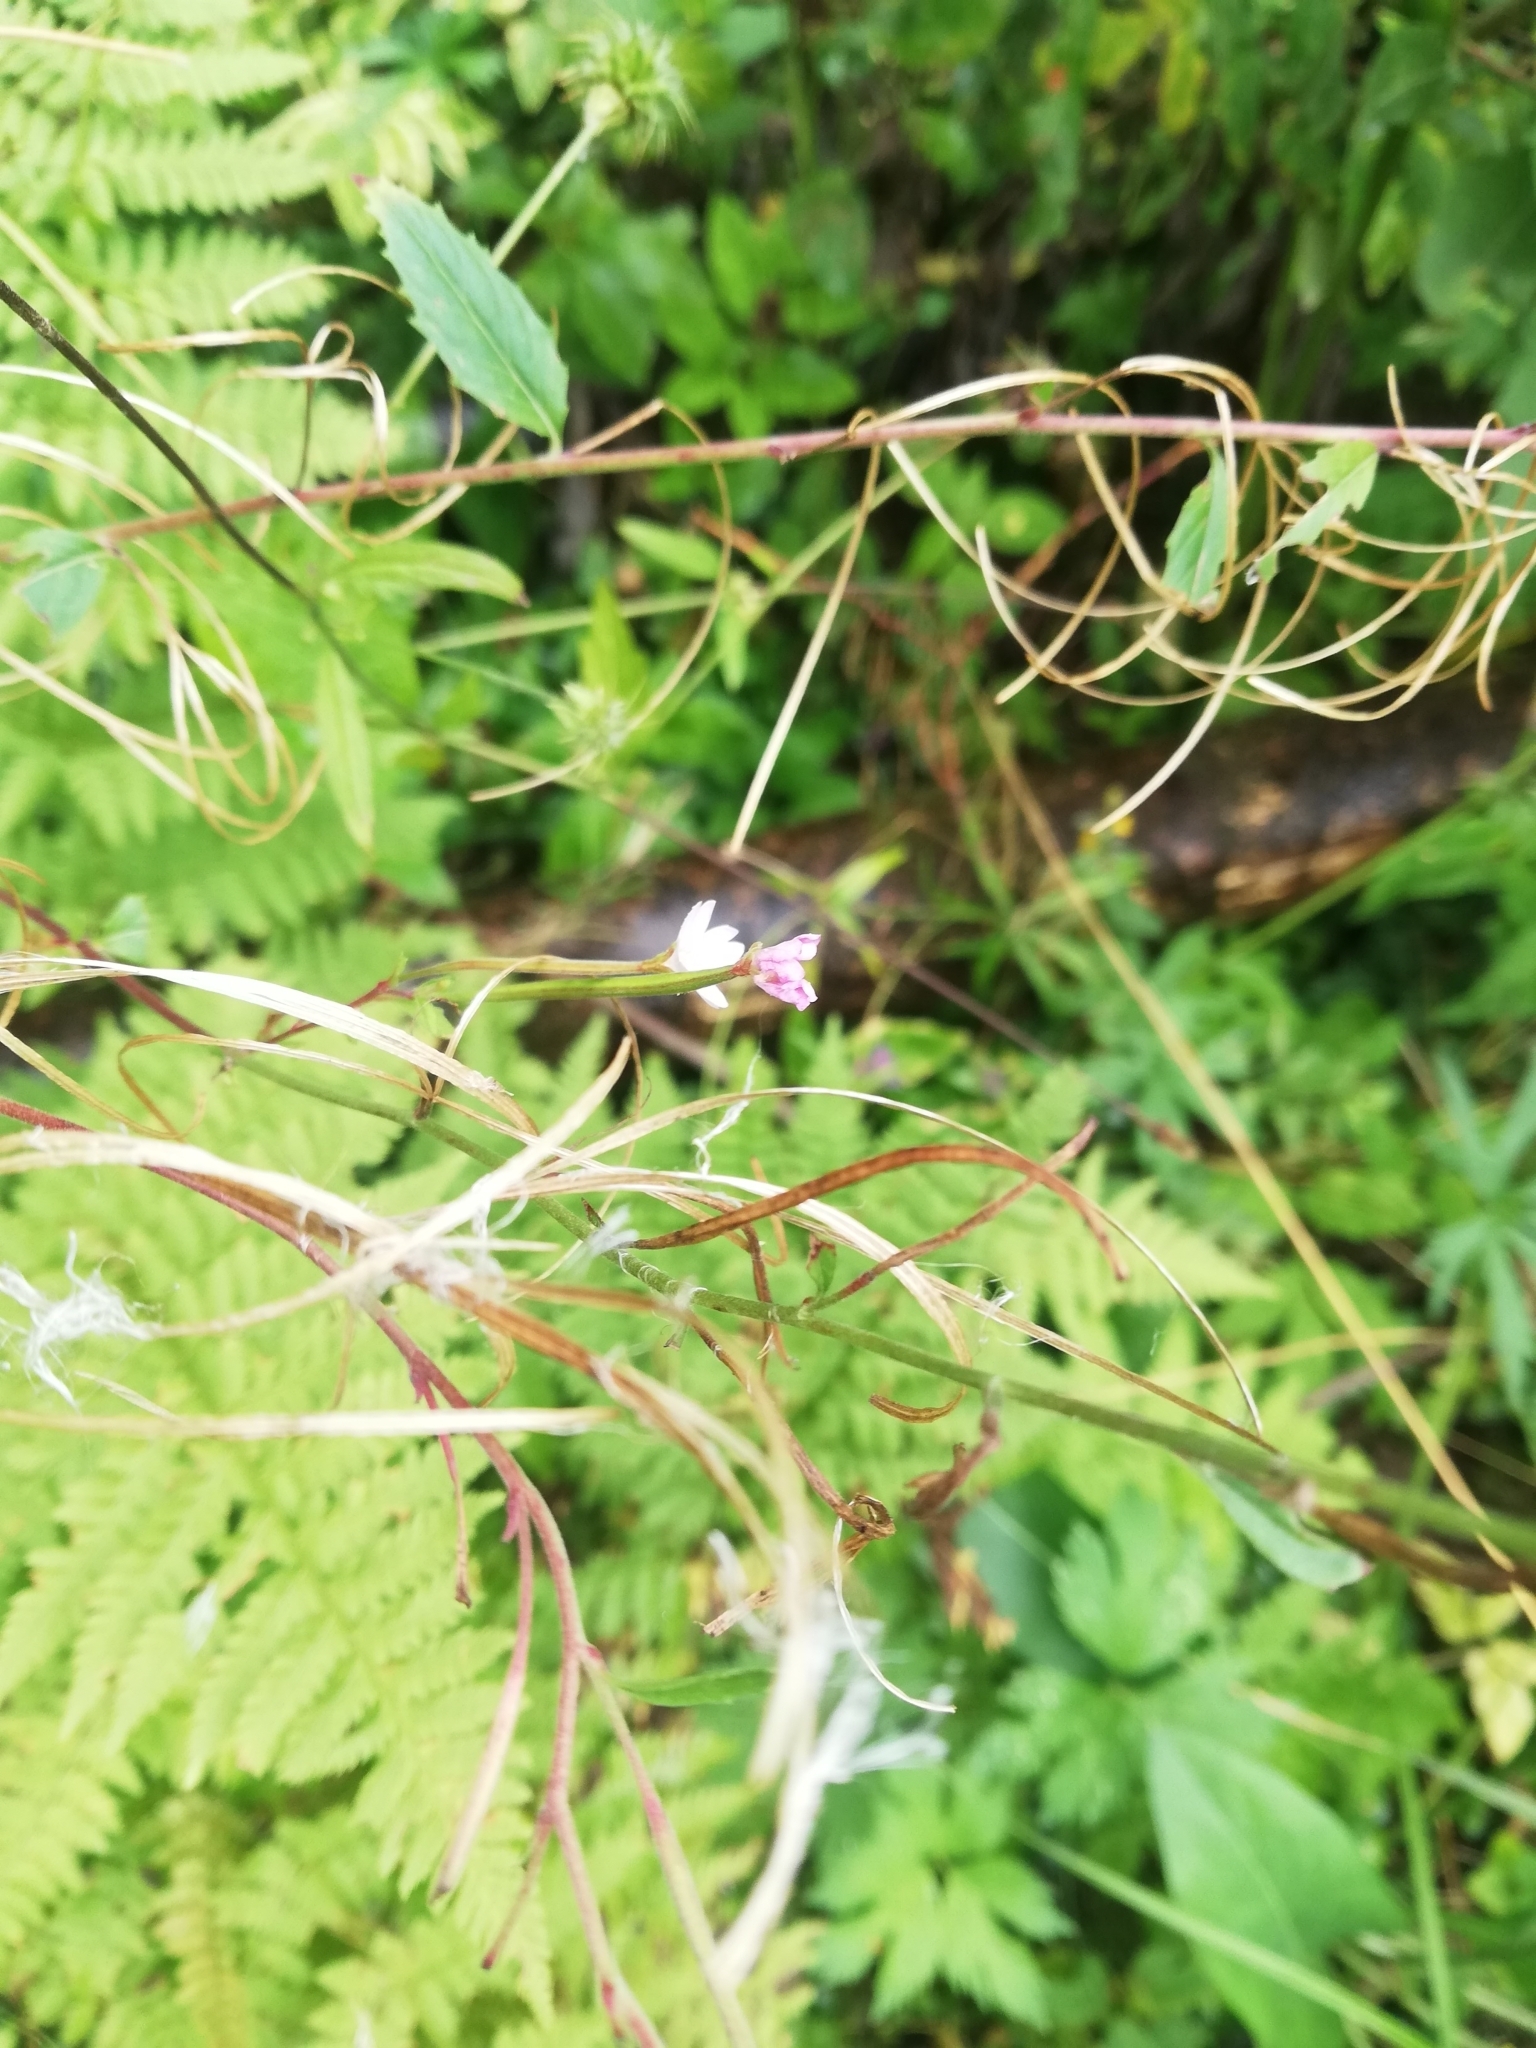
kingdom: Plantae
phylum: Tracheophyta
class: Magnoliopsida
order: Myrtales
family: Onagraceae
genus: Epilobium
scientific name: Epilobium ciliatum
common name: American willowherb
